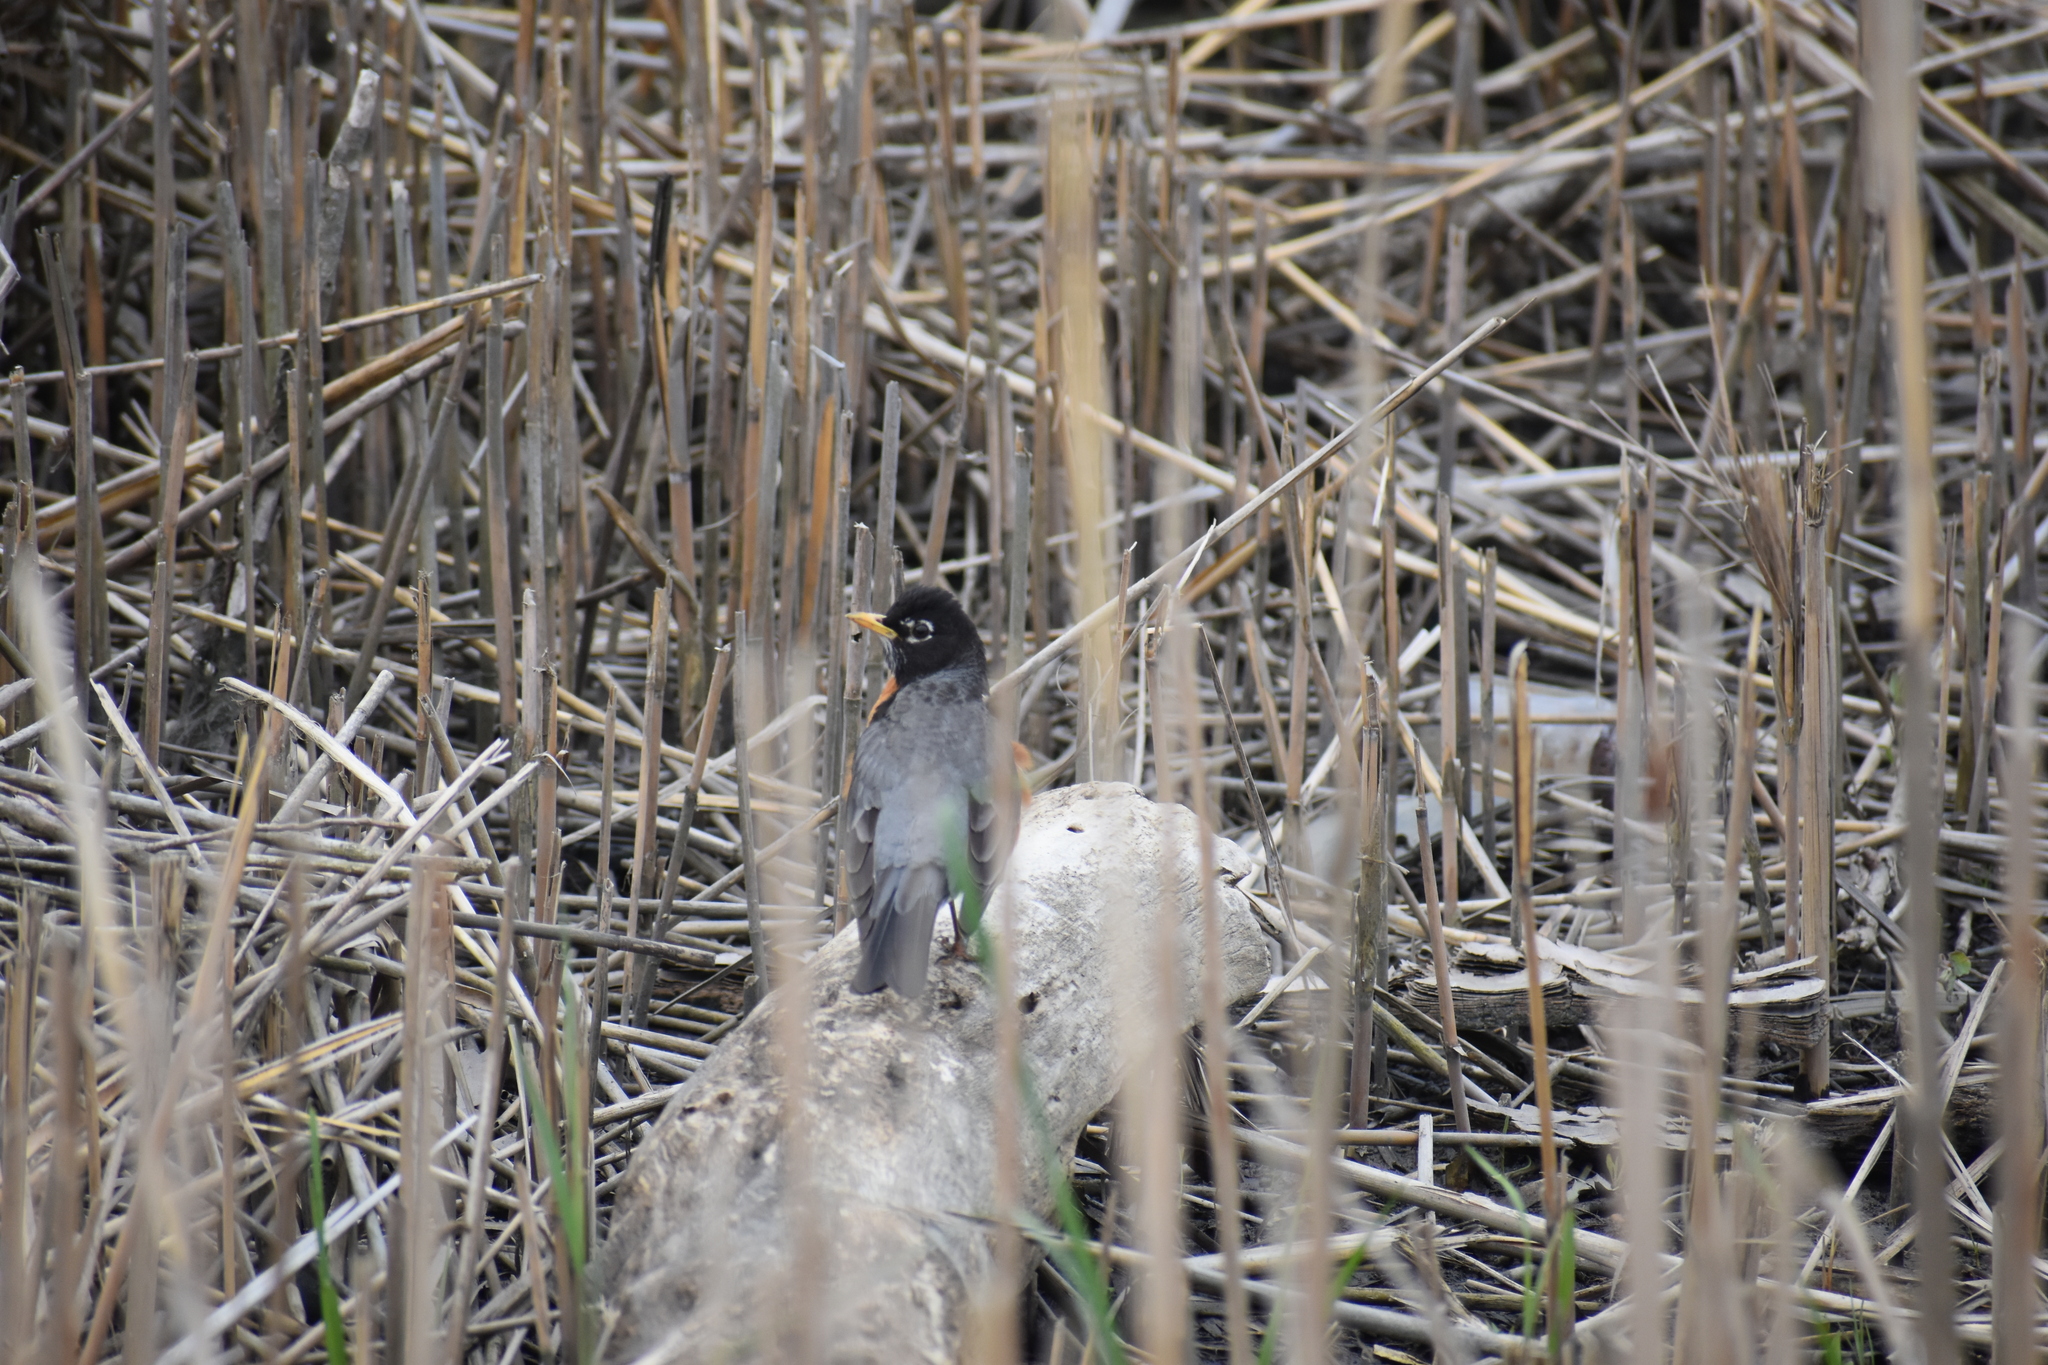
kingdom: Animalia
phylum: Chordata
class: Aves
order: Passeriformes
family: Turdidae
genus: Turdus
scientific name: Turdus migratorius
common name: American robin
